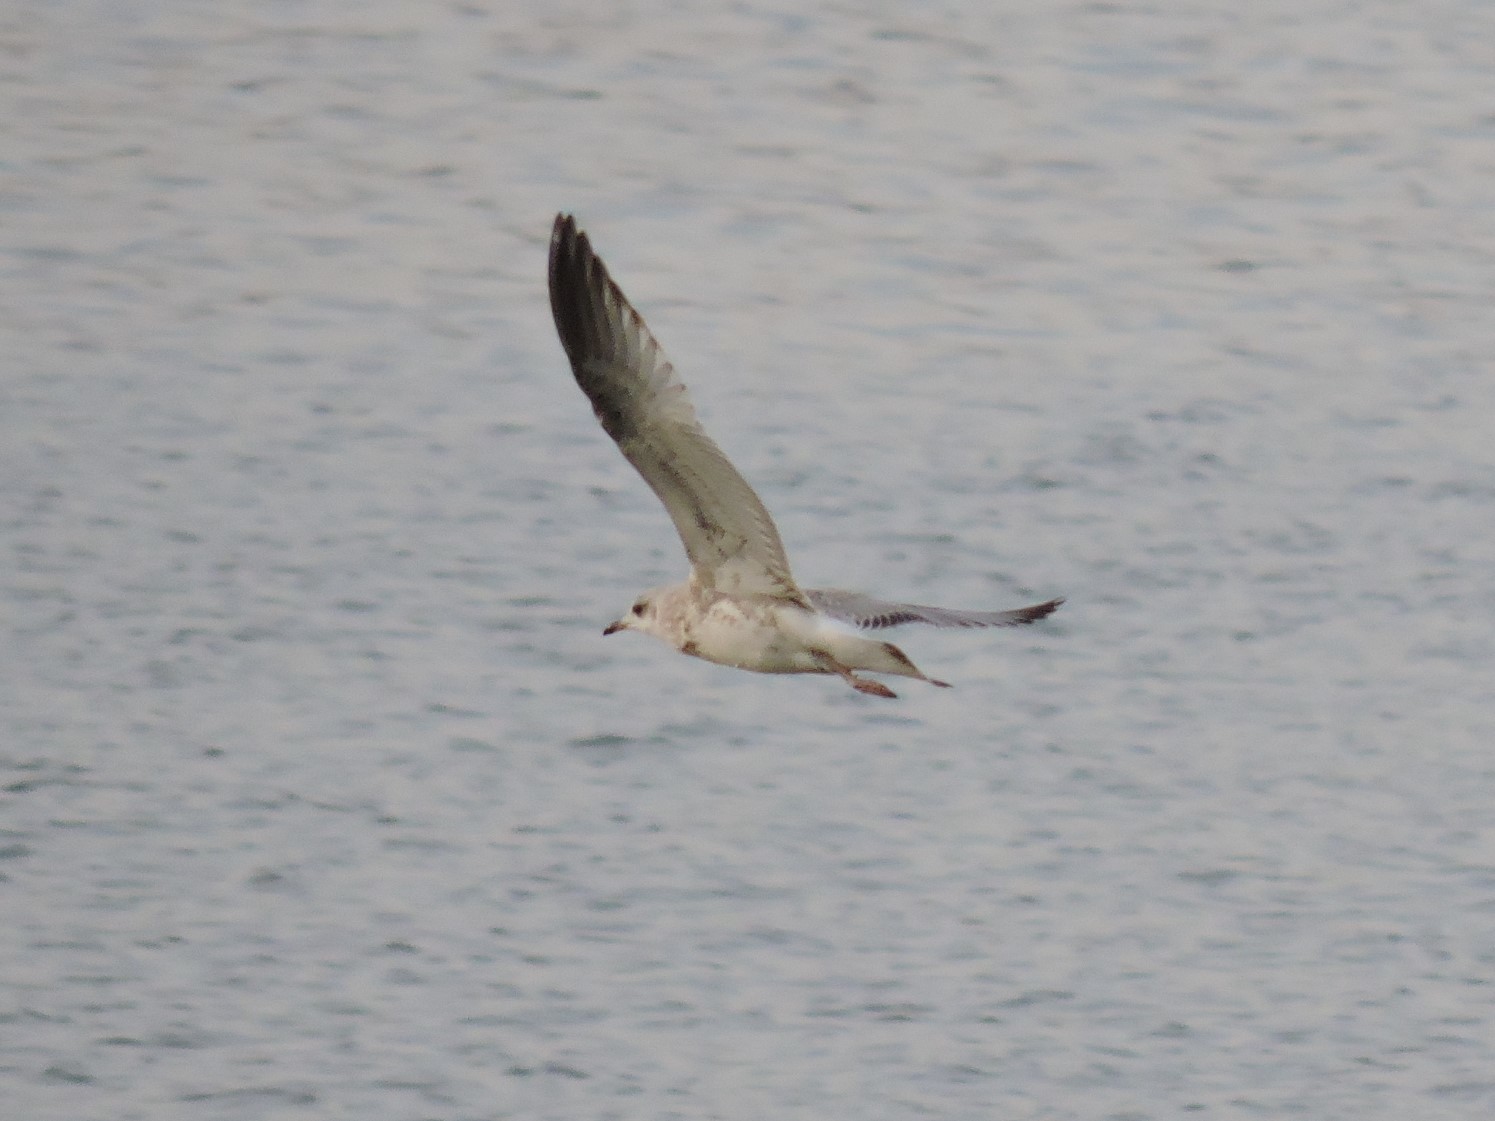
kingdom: Animalia
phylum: Chordata
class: Aves
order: Charadriiformes
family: Laridae
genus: Larus
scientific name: Larus canus
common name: Mew gull
